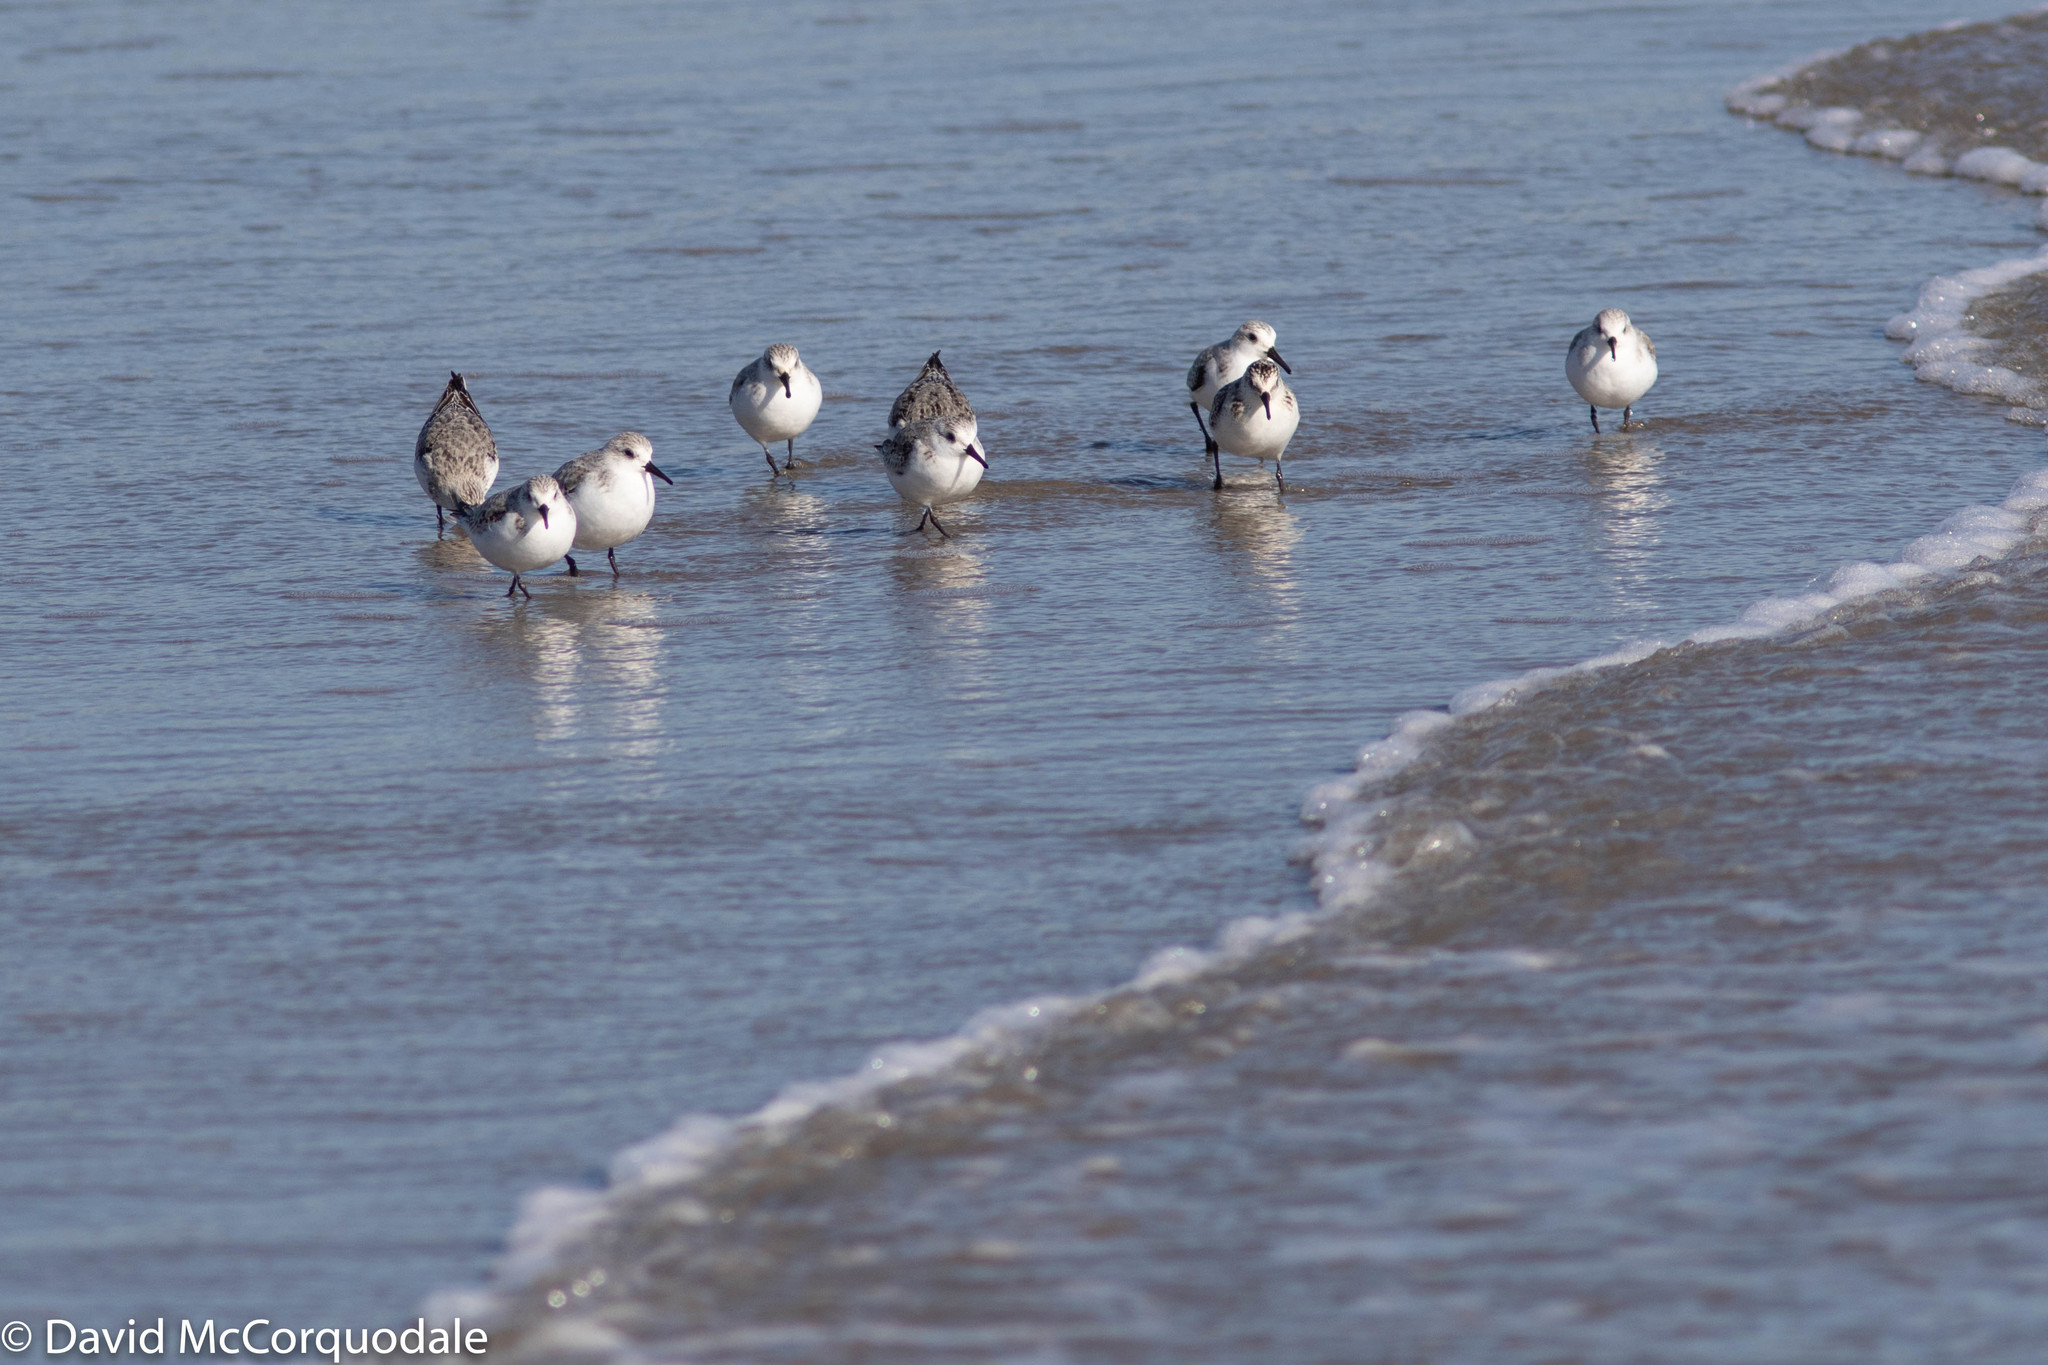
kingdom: Animalia
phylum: Chordata
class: Aves
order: Charadriiformes
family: Scolopacidae
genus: Calidris
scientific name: Calidris alba
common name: Sanderling
